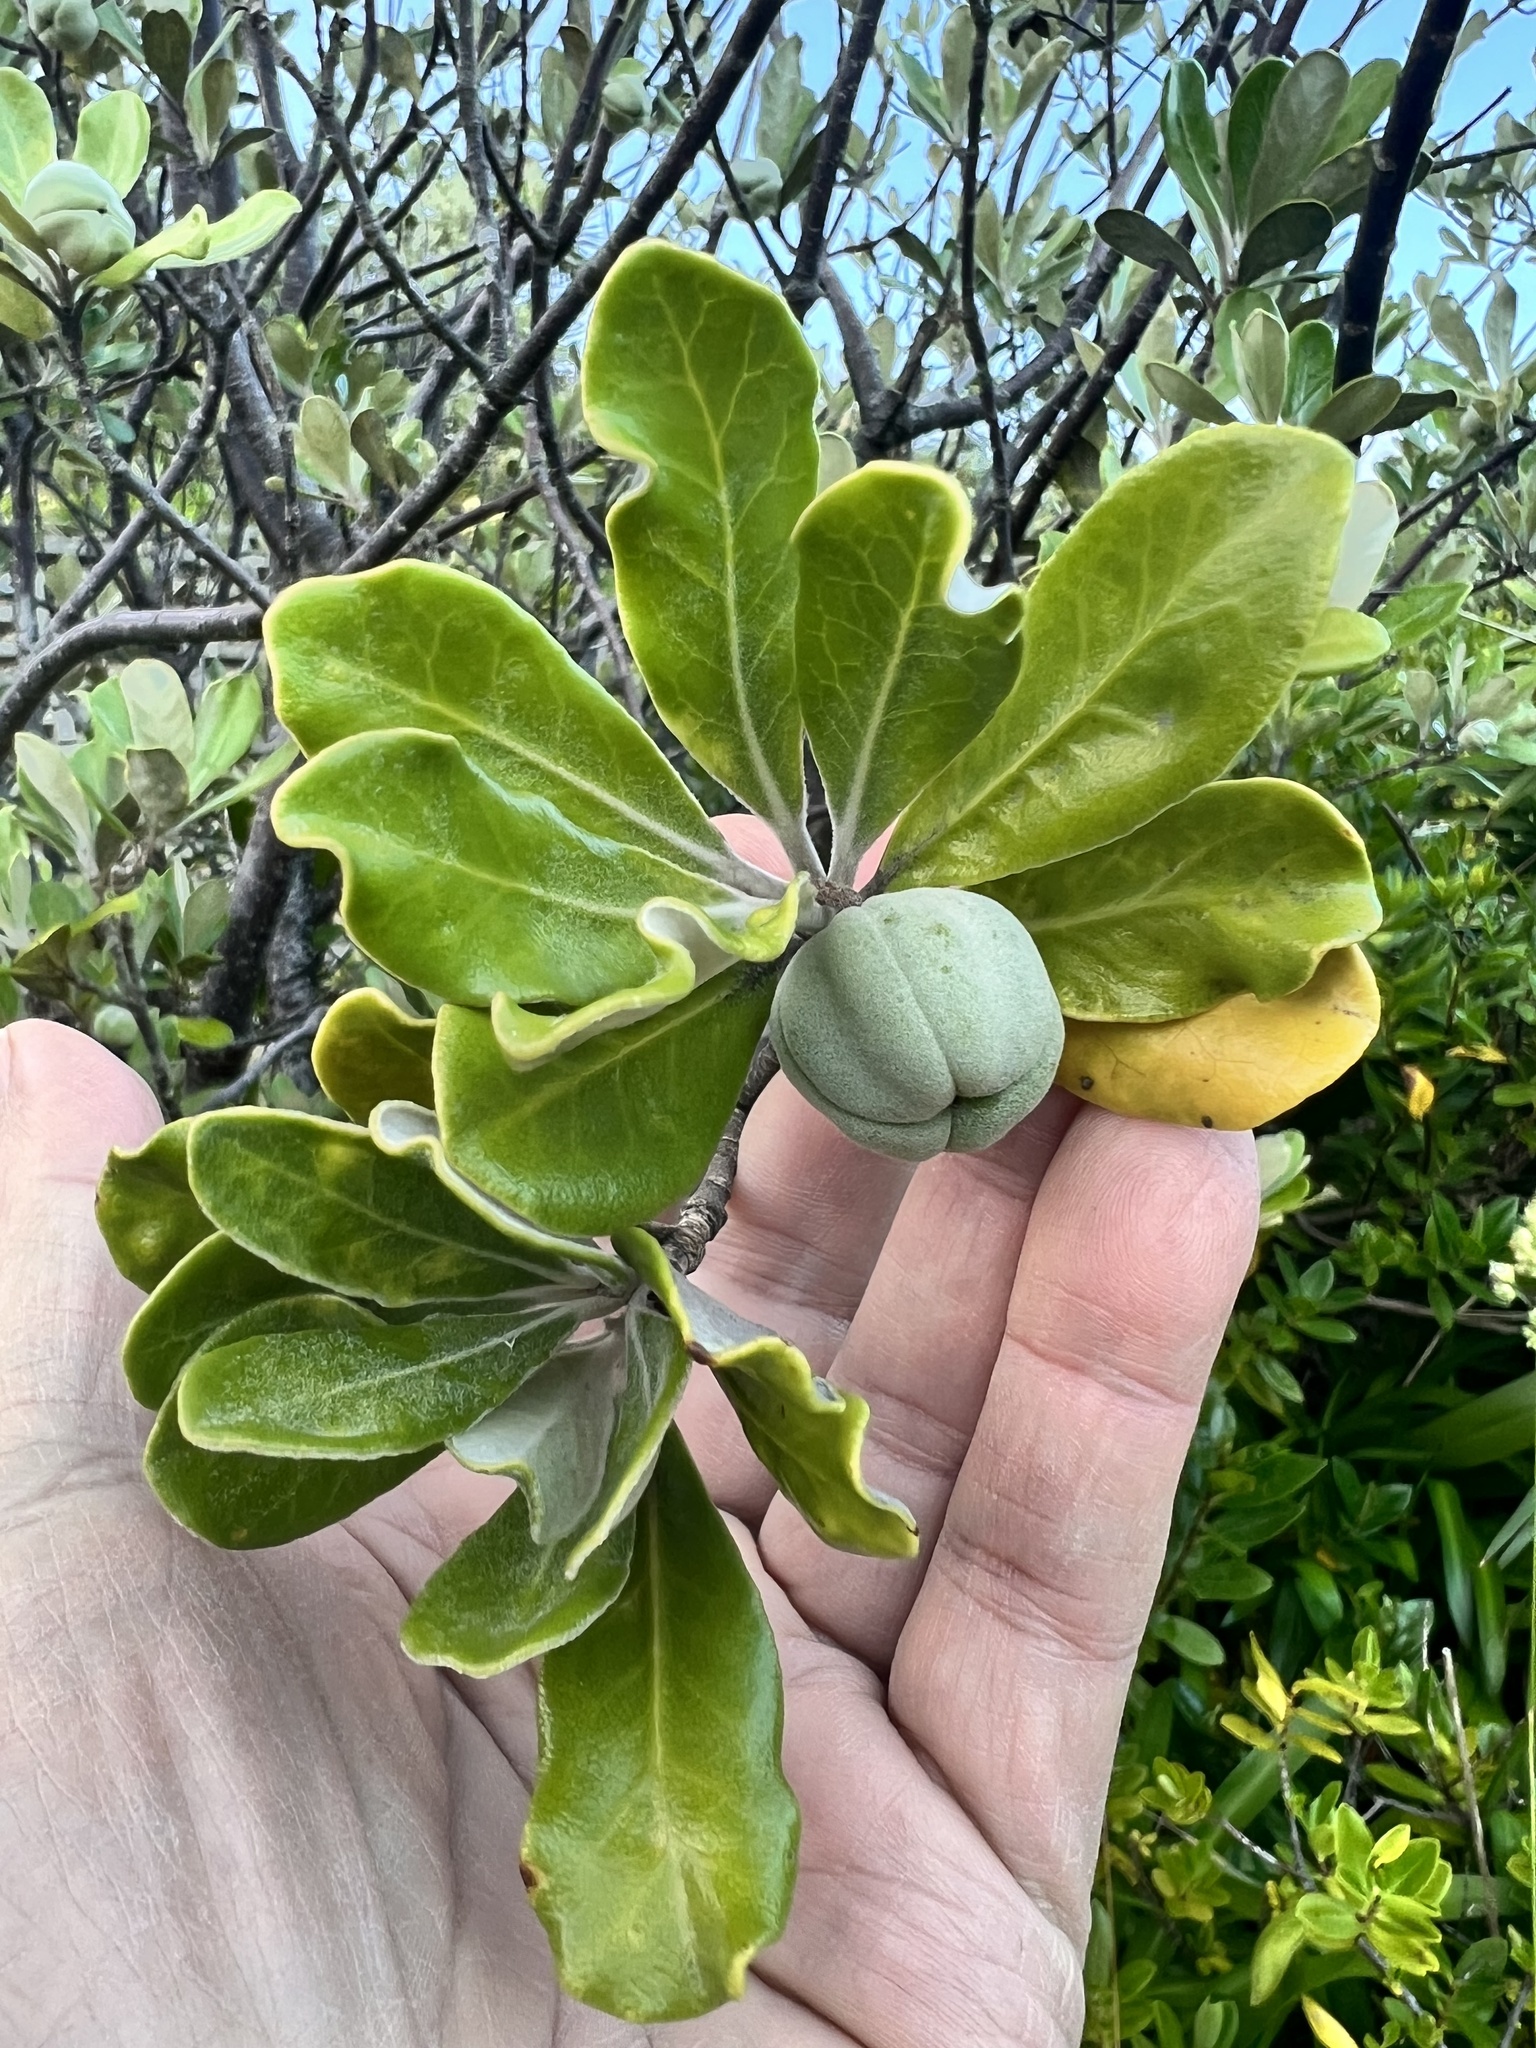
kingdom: Plantae
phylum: Tracheophyta
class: Magnoliopsida
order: Apiales
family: Pittosporaceae
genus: Pittosporum
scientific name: Pittosporum crassifolium
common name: Karo
